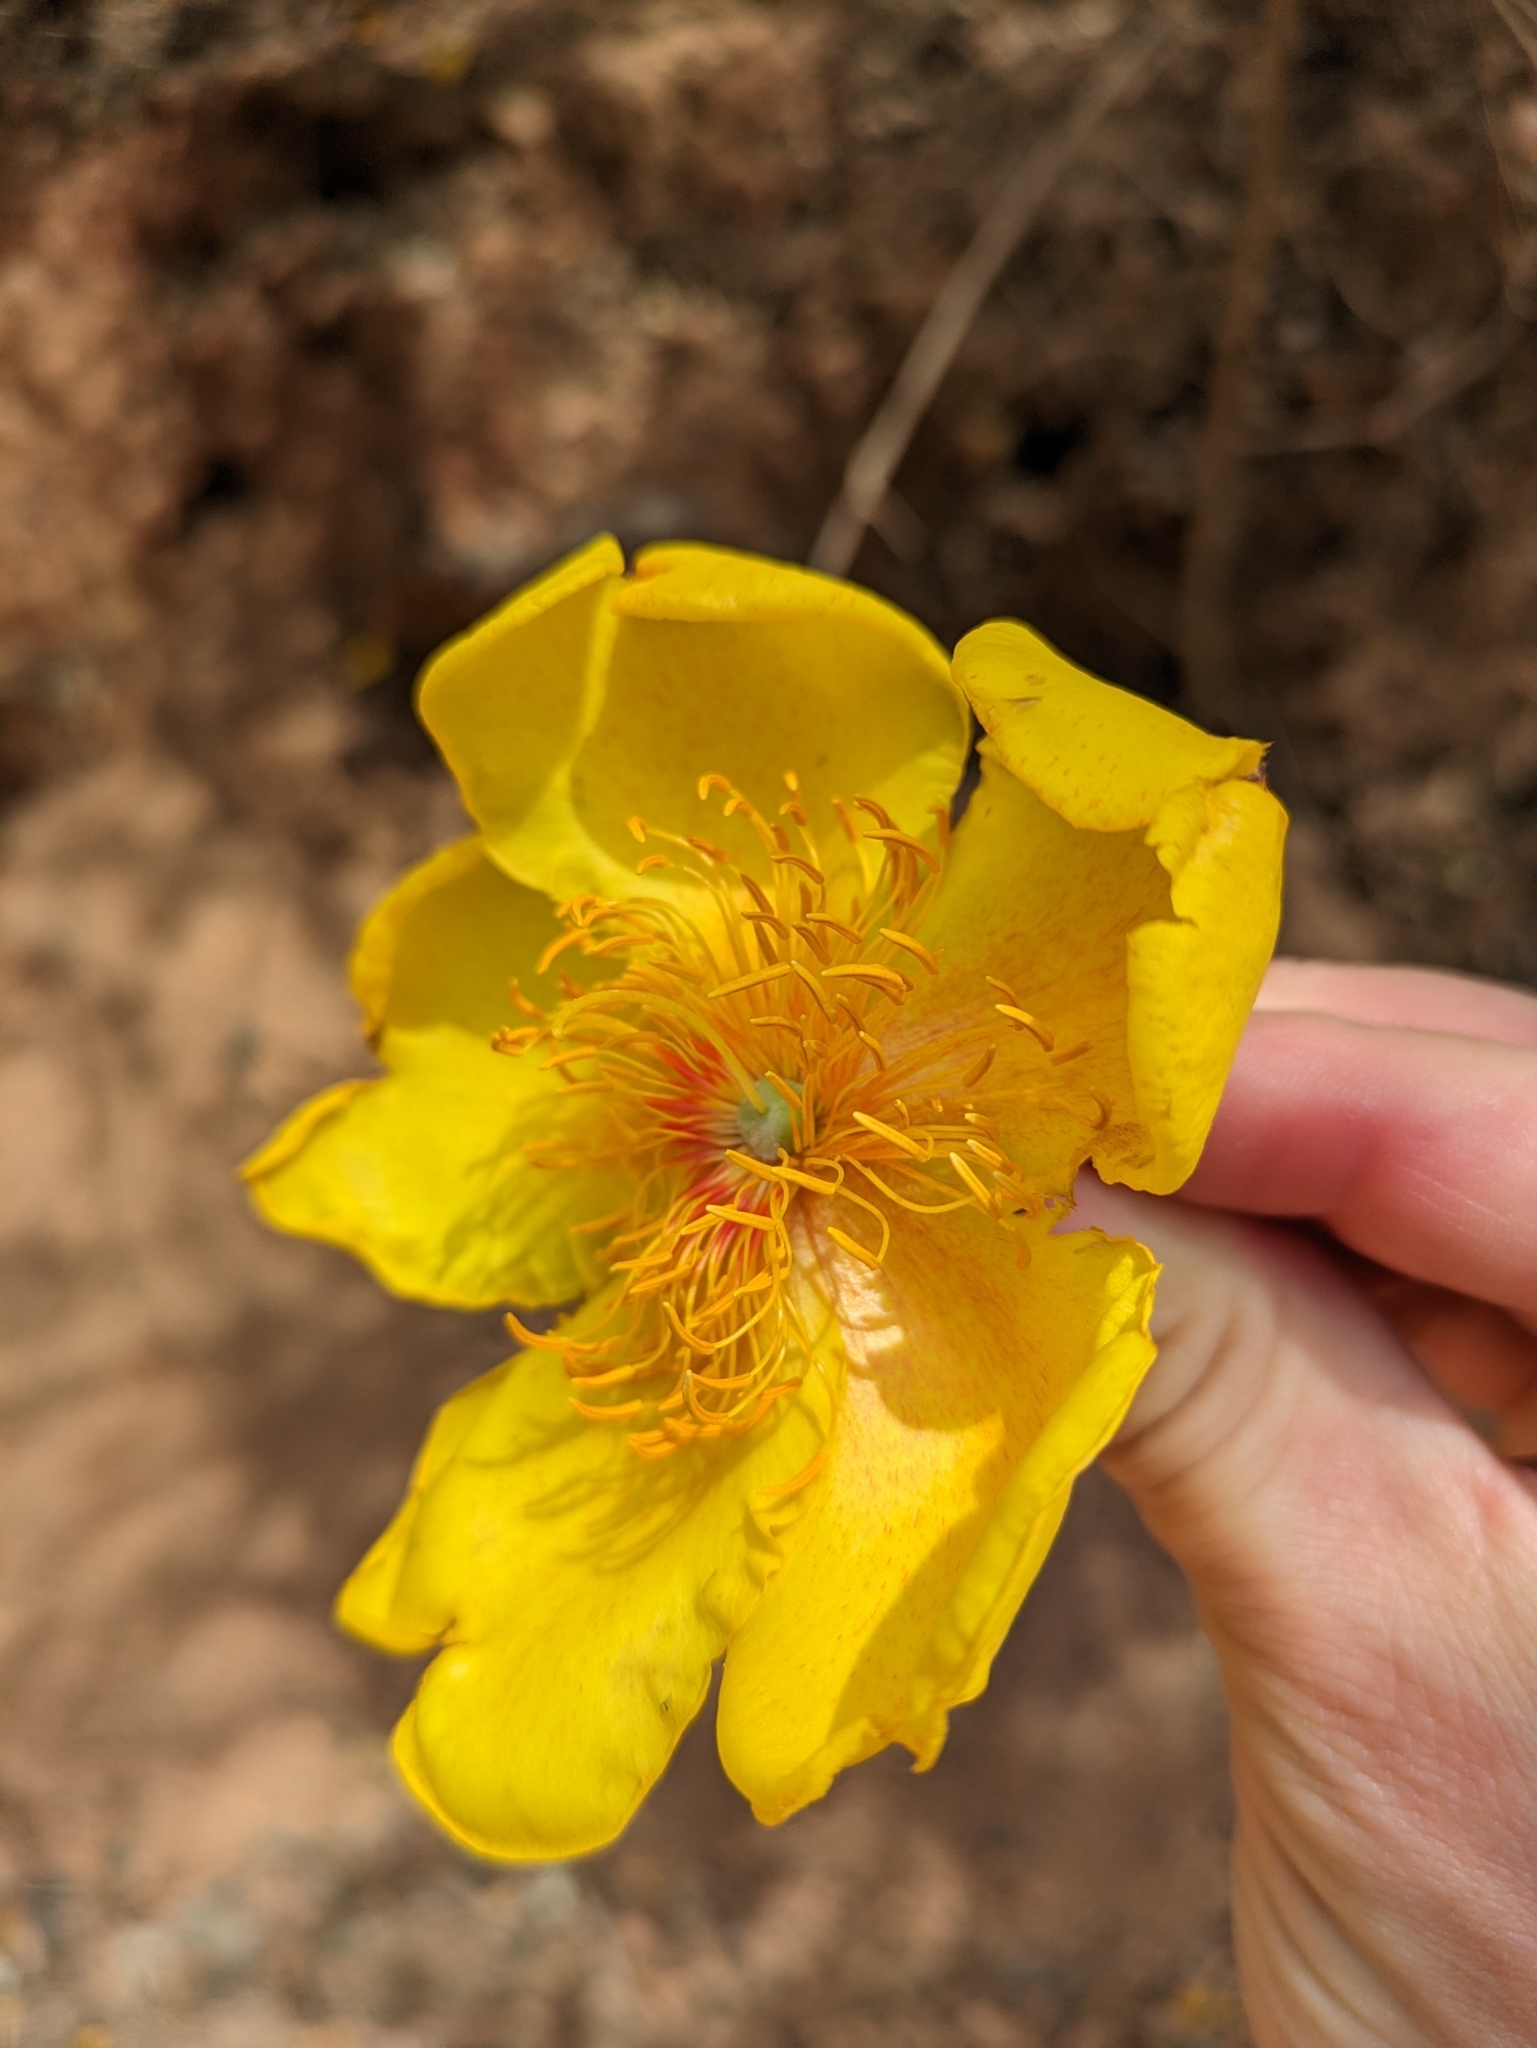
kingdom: Plantae
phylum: Tracheophyta
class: Magnoliopsida
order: Malvales
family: Cochlospermaceae
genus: Cochlospermum
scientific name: Cochlospermum vitifolium
